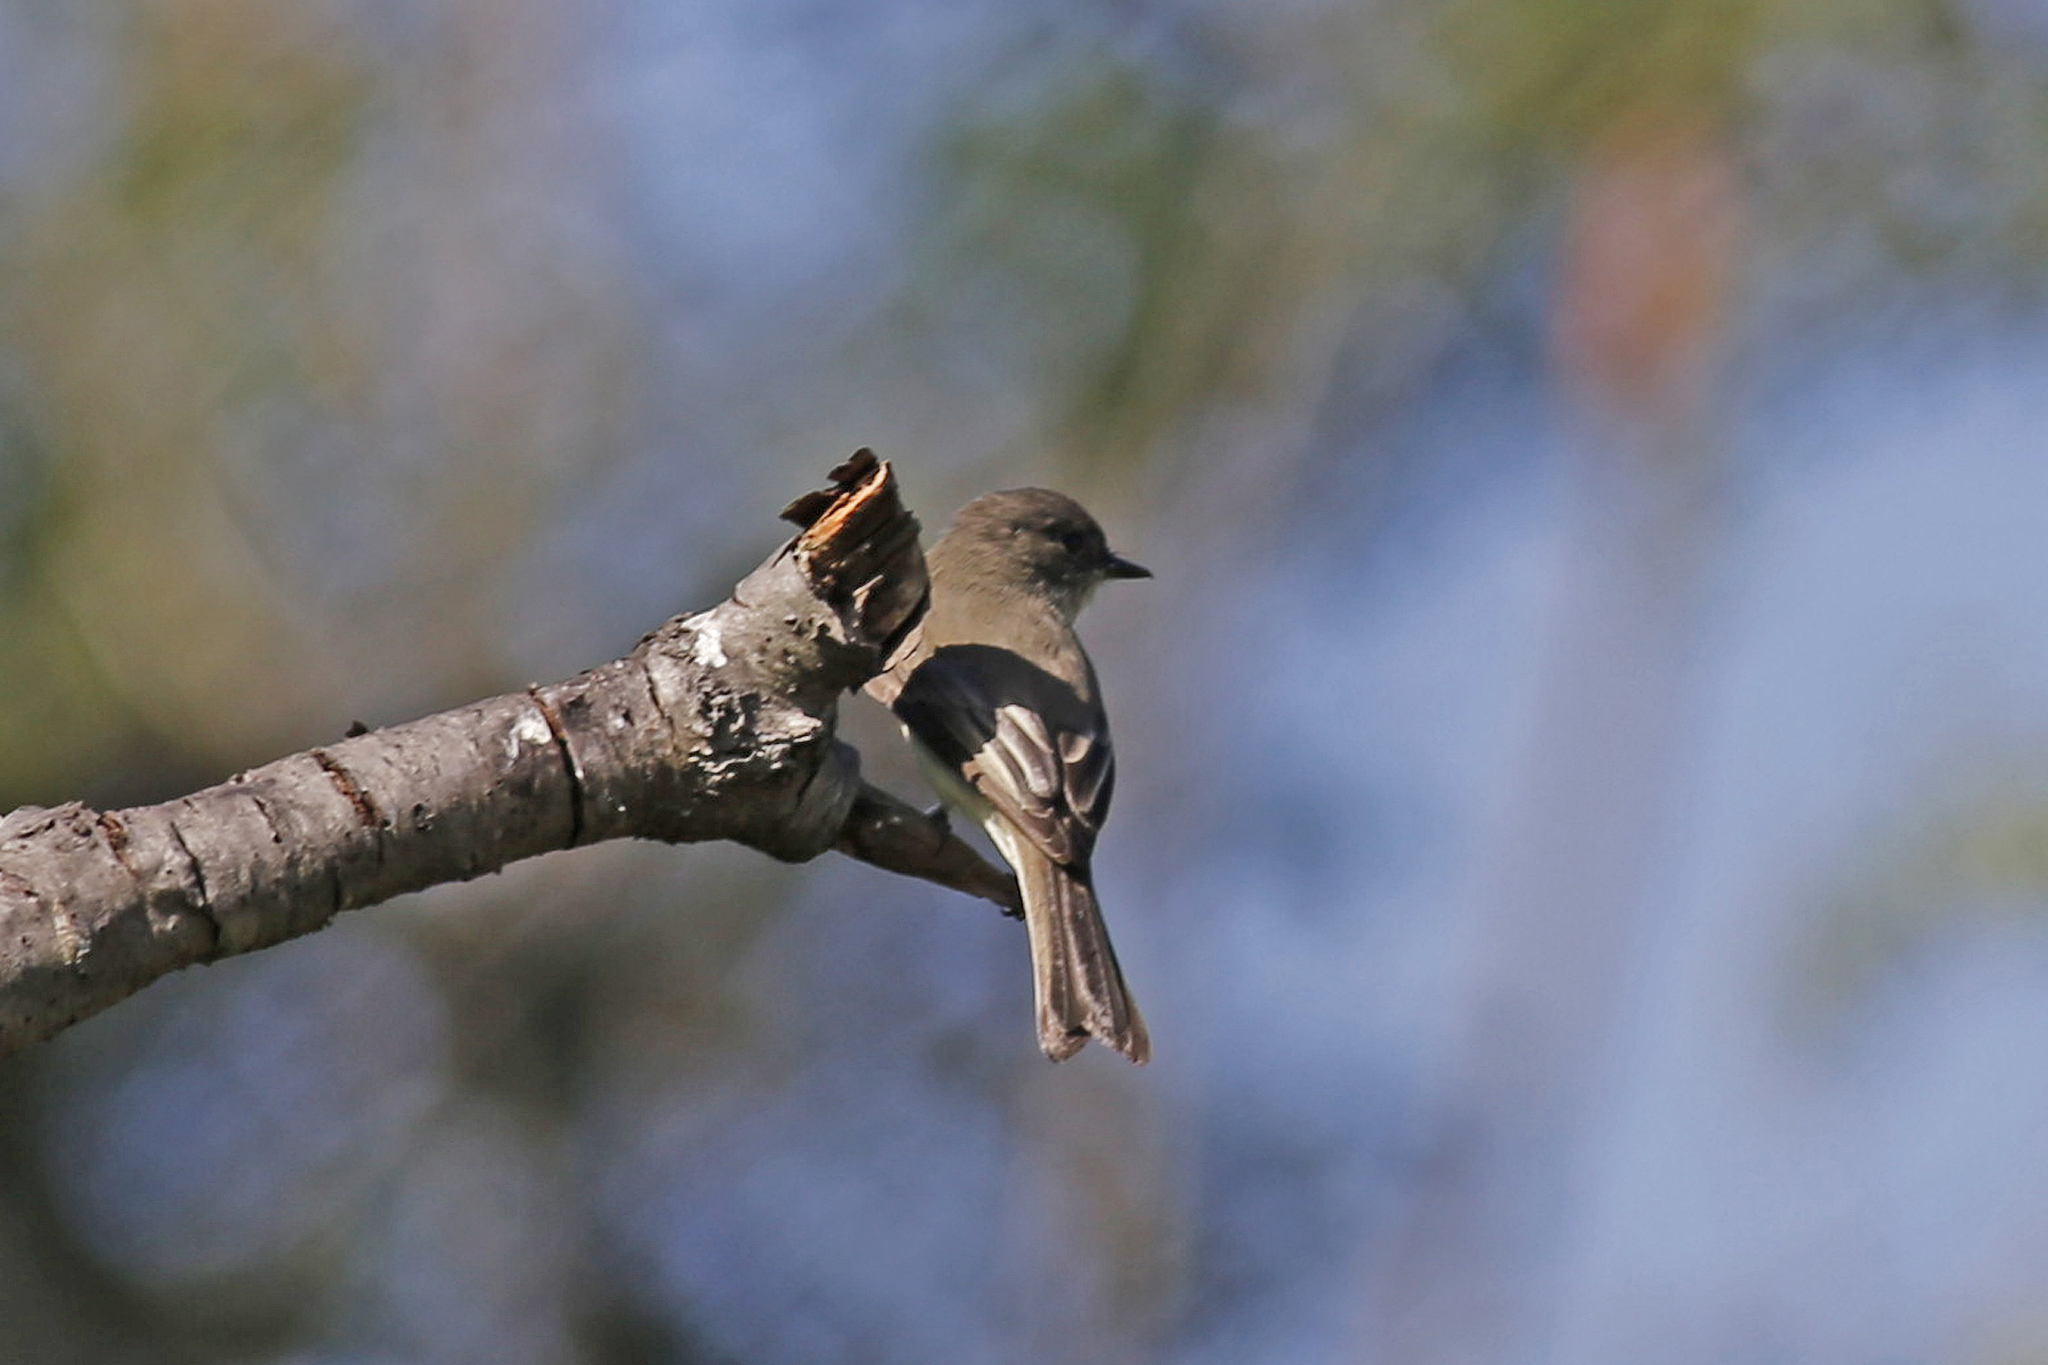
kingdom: Animalia
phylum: Chordata
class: Aves
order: Passeriformes
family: Tyrannidae
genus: Sayornis
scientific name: Sayornis phoebe
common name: Eastern phoebe
